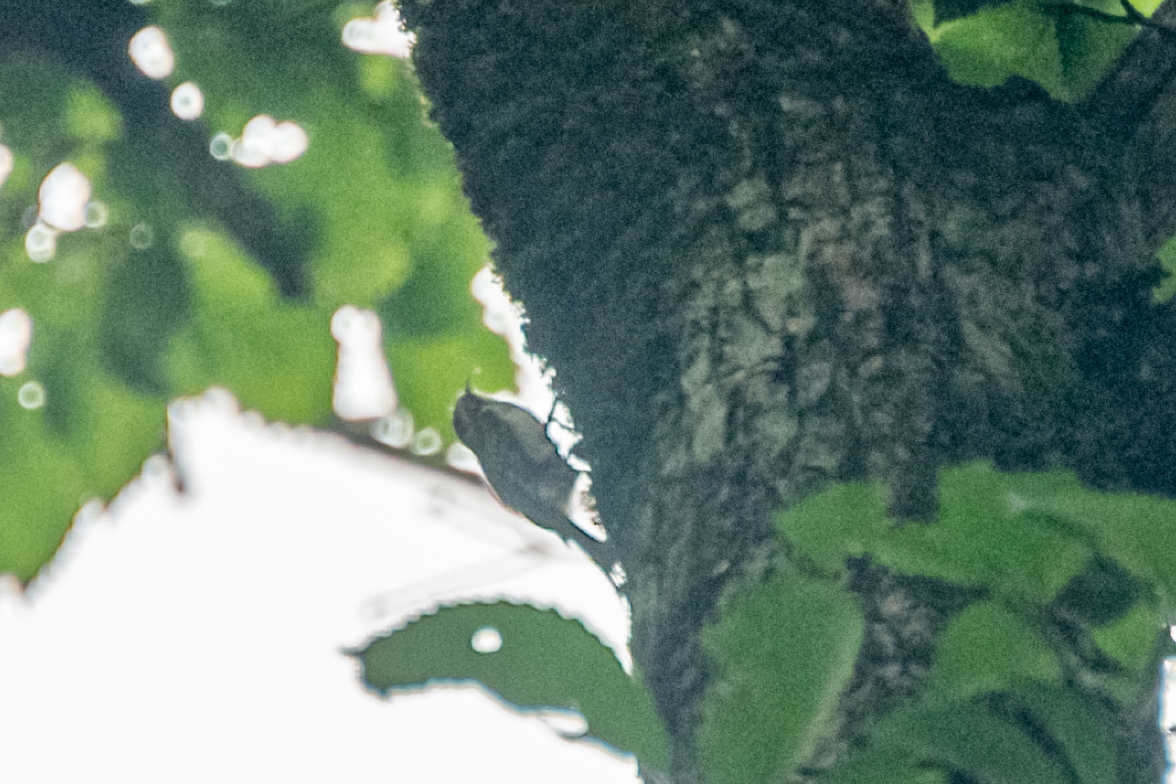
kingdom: Animalia
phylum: Chordata
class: Aves
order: Passeriformes
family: Certhiidae
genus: Certhia
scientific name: Certhia familiaris
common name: Eurasian treecreeper
